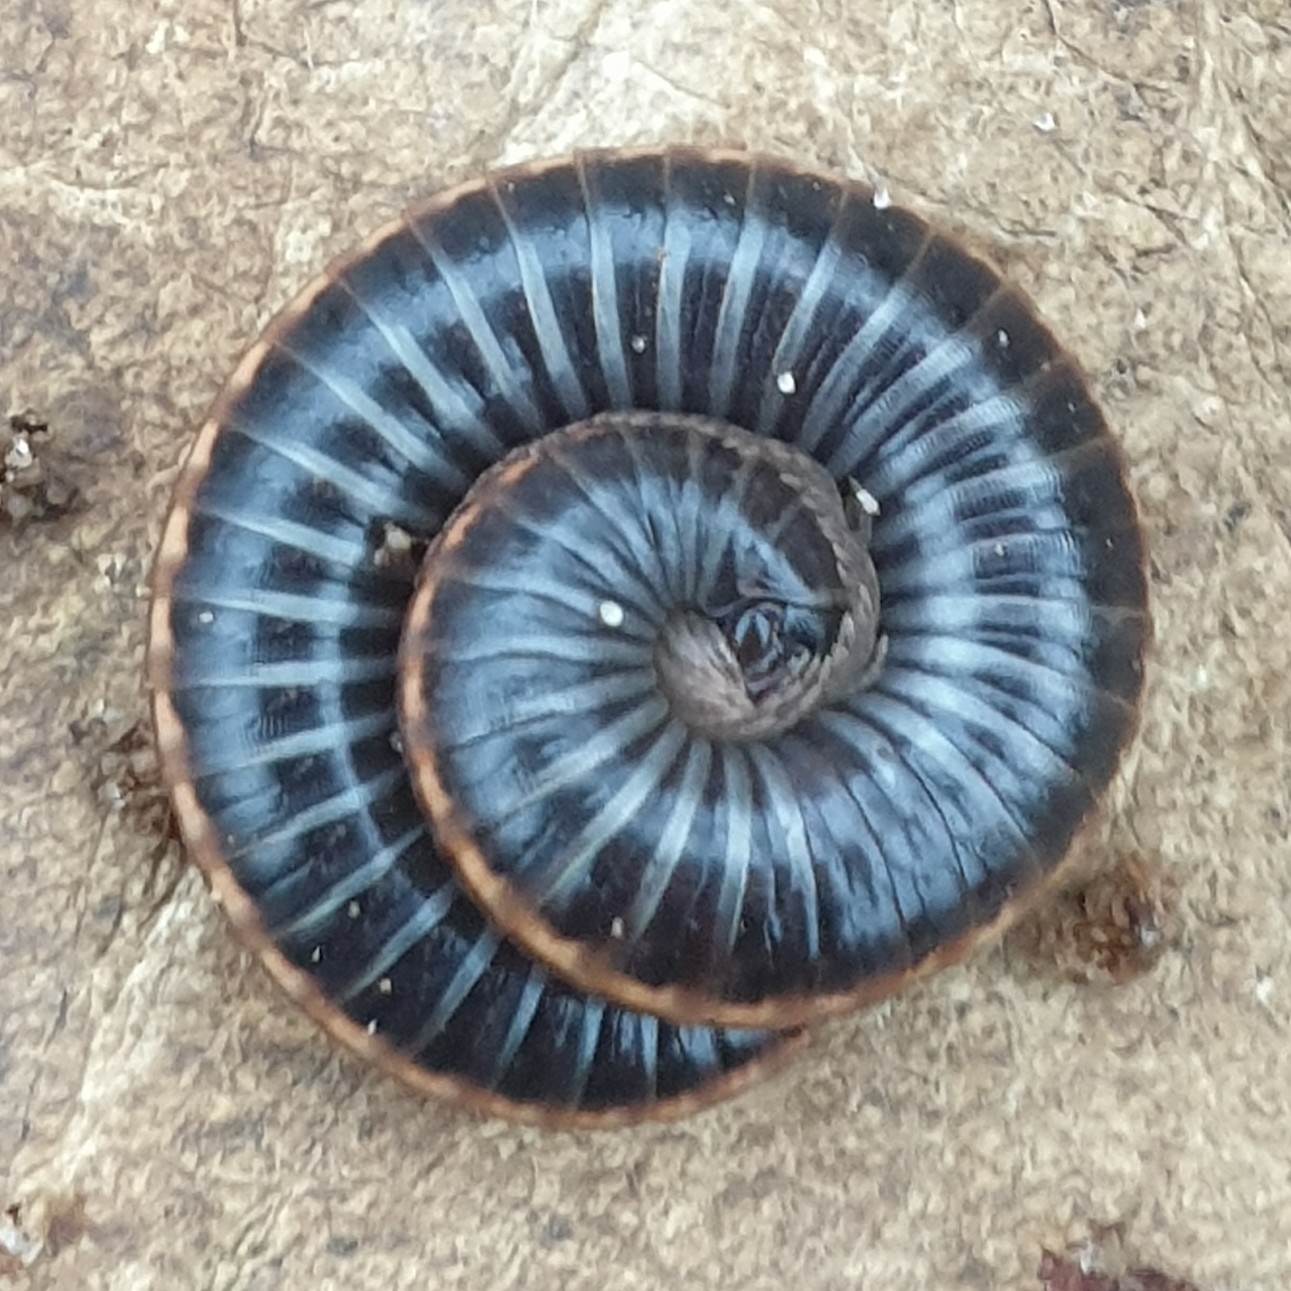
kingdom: Animalia
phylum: Arthropoda
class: Diplopoda
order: Julida
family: Julidae
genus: Ommatoiulus
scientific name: Ommatoiulus sabulosus
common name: Striped millipede
